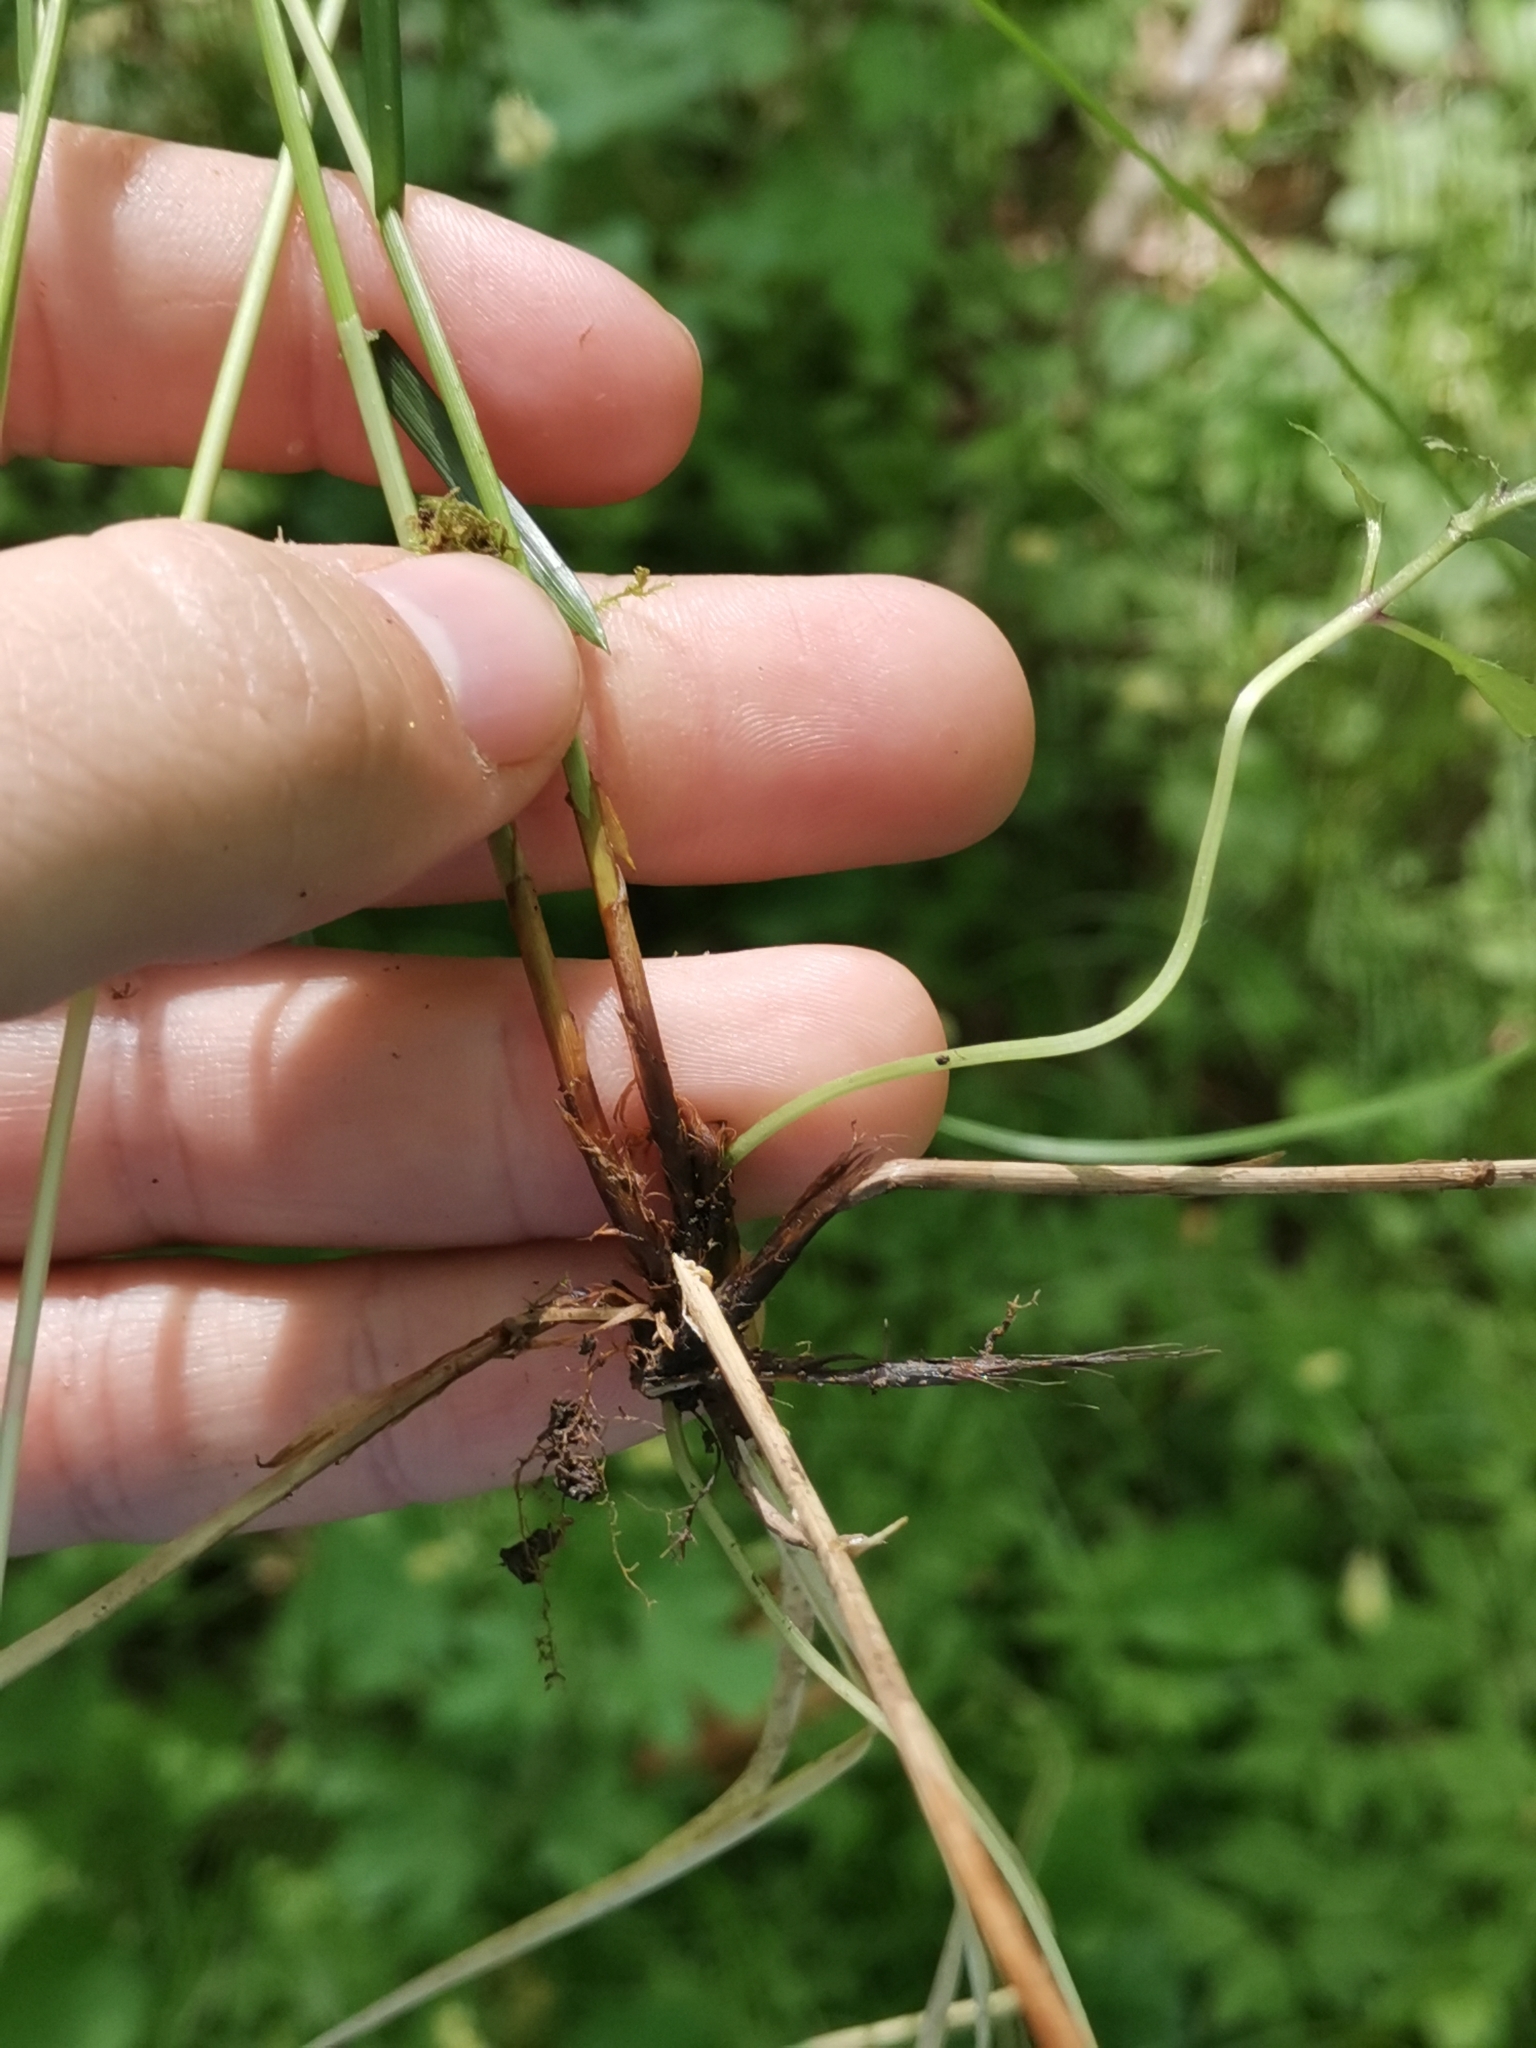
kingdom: Plantae
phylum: Tracheophyta
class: Liliopsida
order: Poales
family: Cyperaceae
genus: Carex
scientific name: Carex brizoides
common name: Quaking-grass sedge
